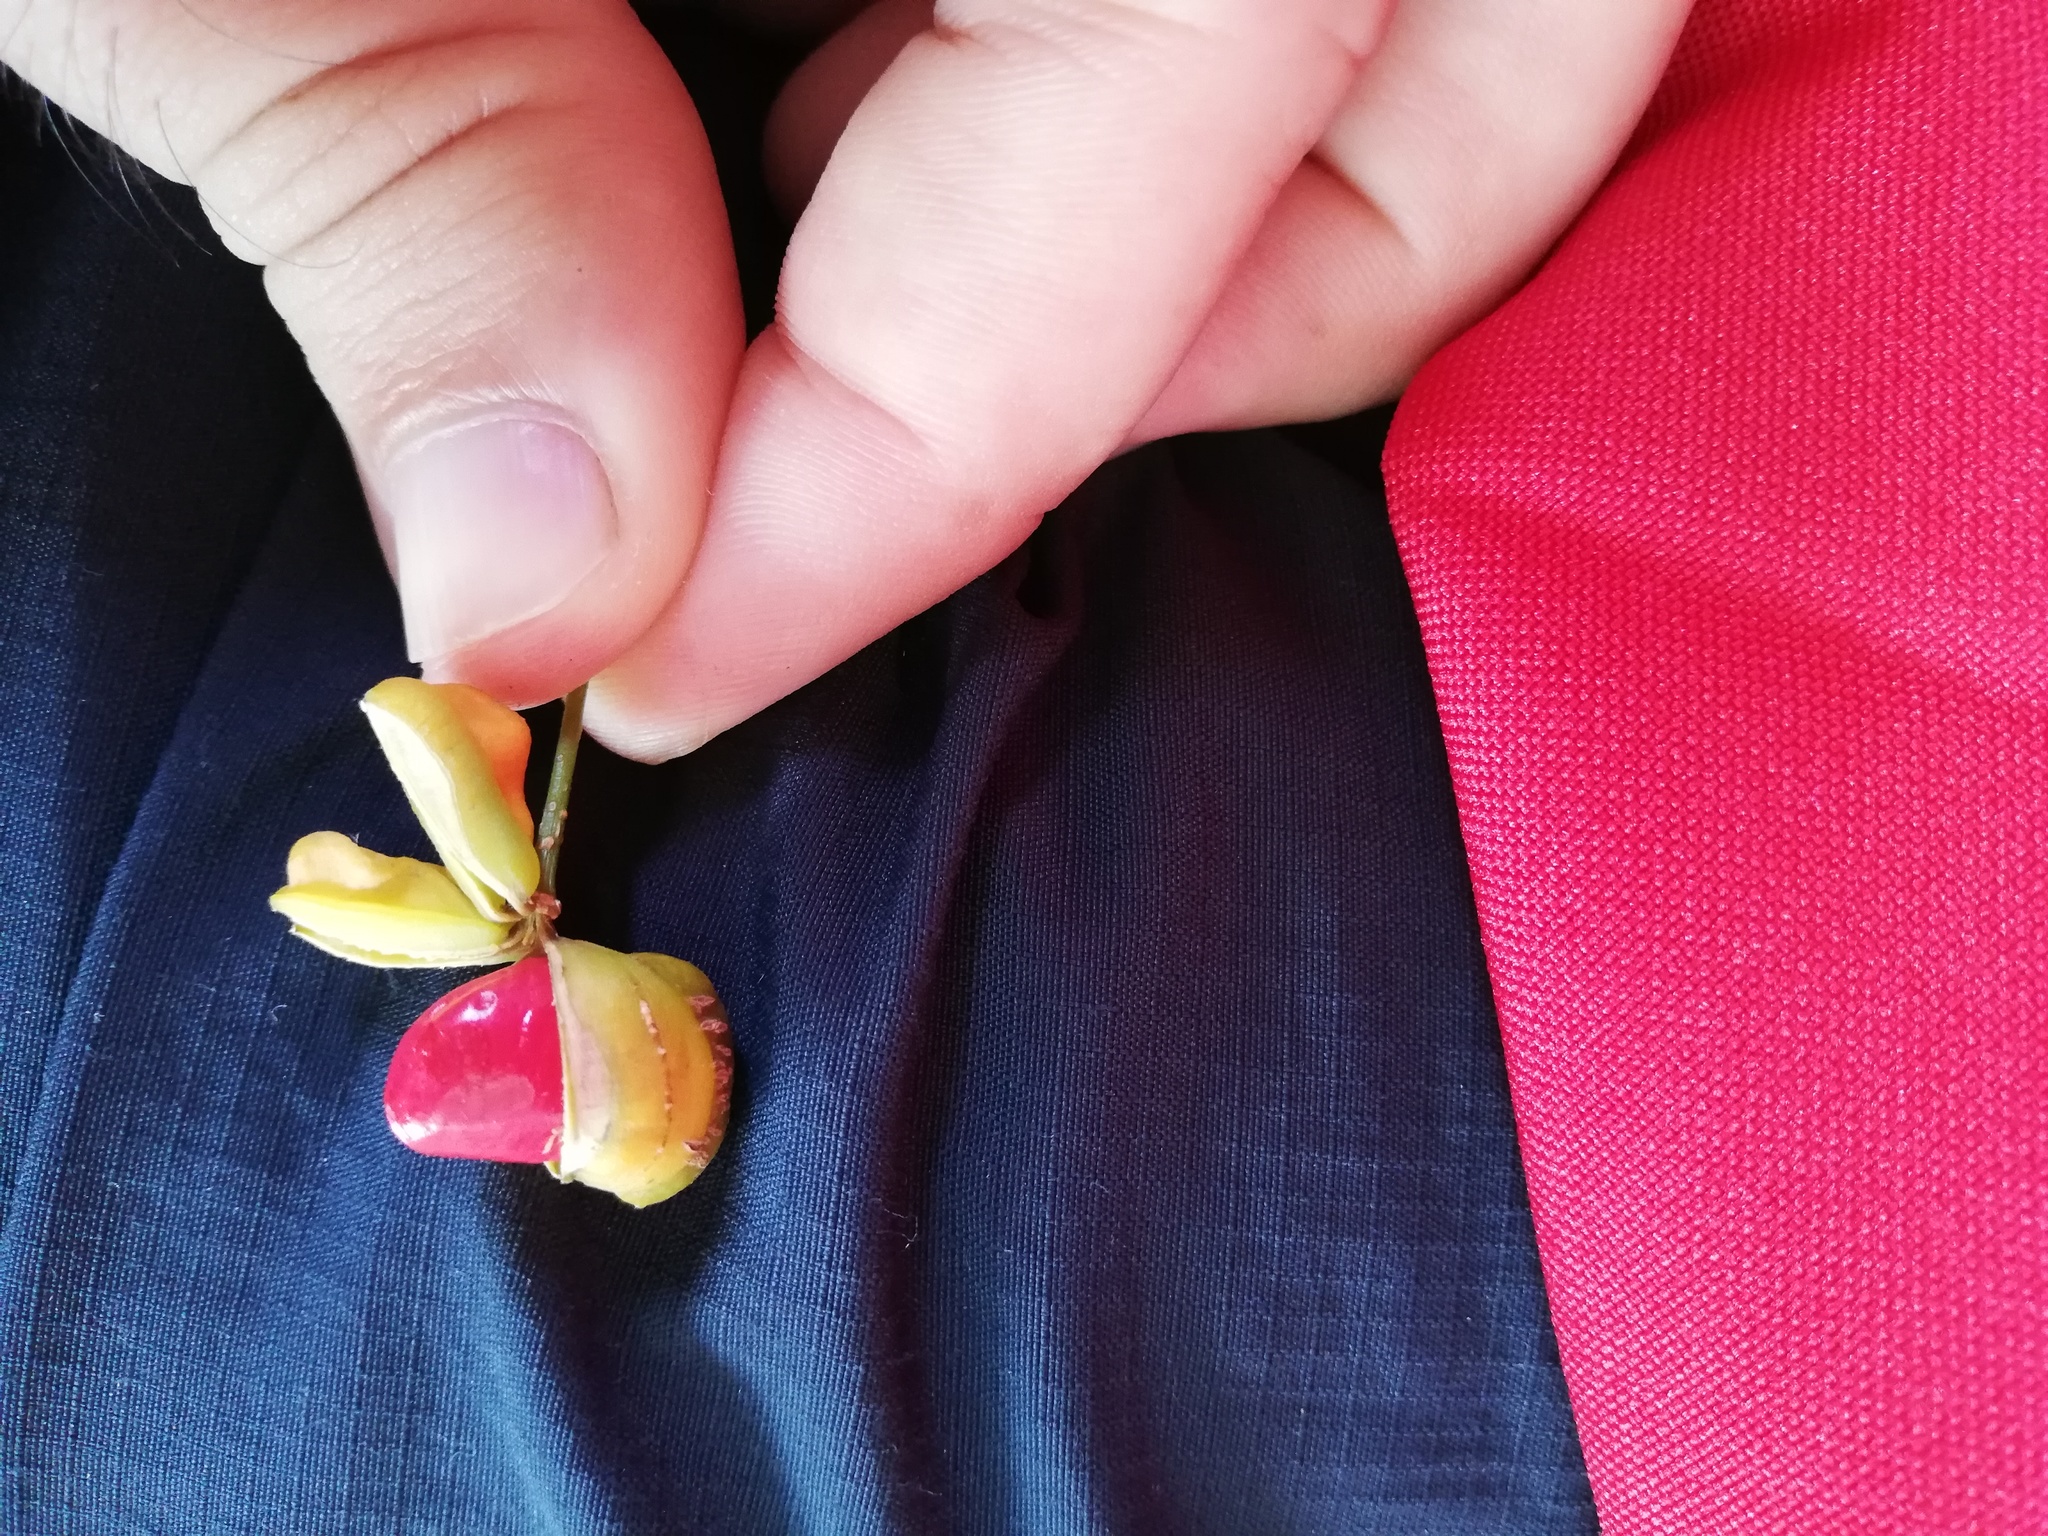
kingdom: Plantae
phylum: Tracheophyta
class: Magnoliopsida
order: Zygophyllales
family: Zygophyllaceae
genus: Guaiacum
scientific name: Guaiacum sanctum
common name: Holywood
